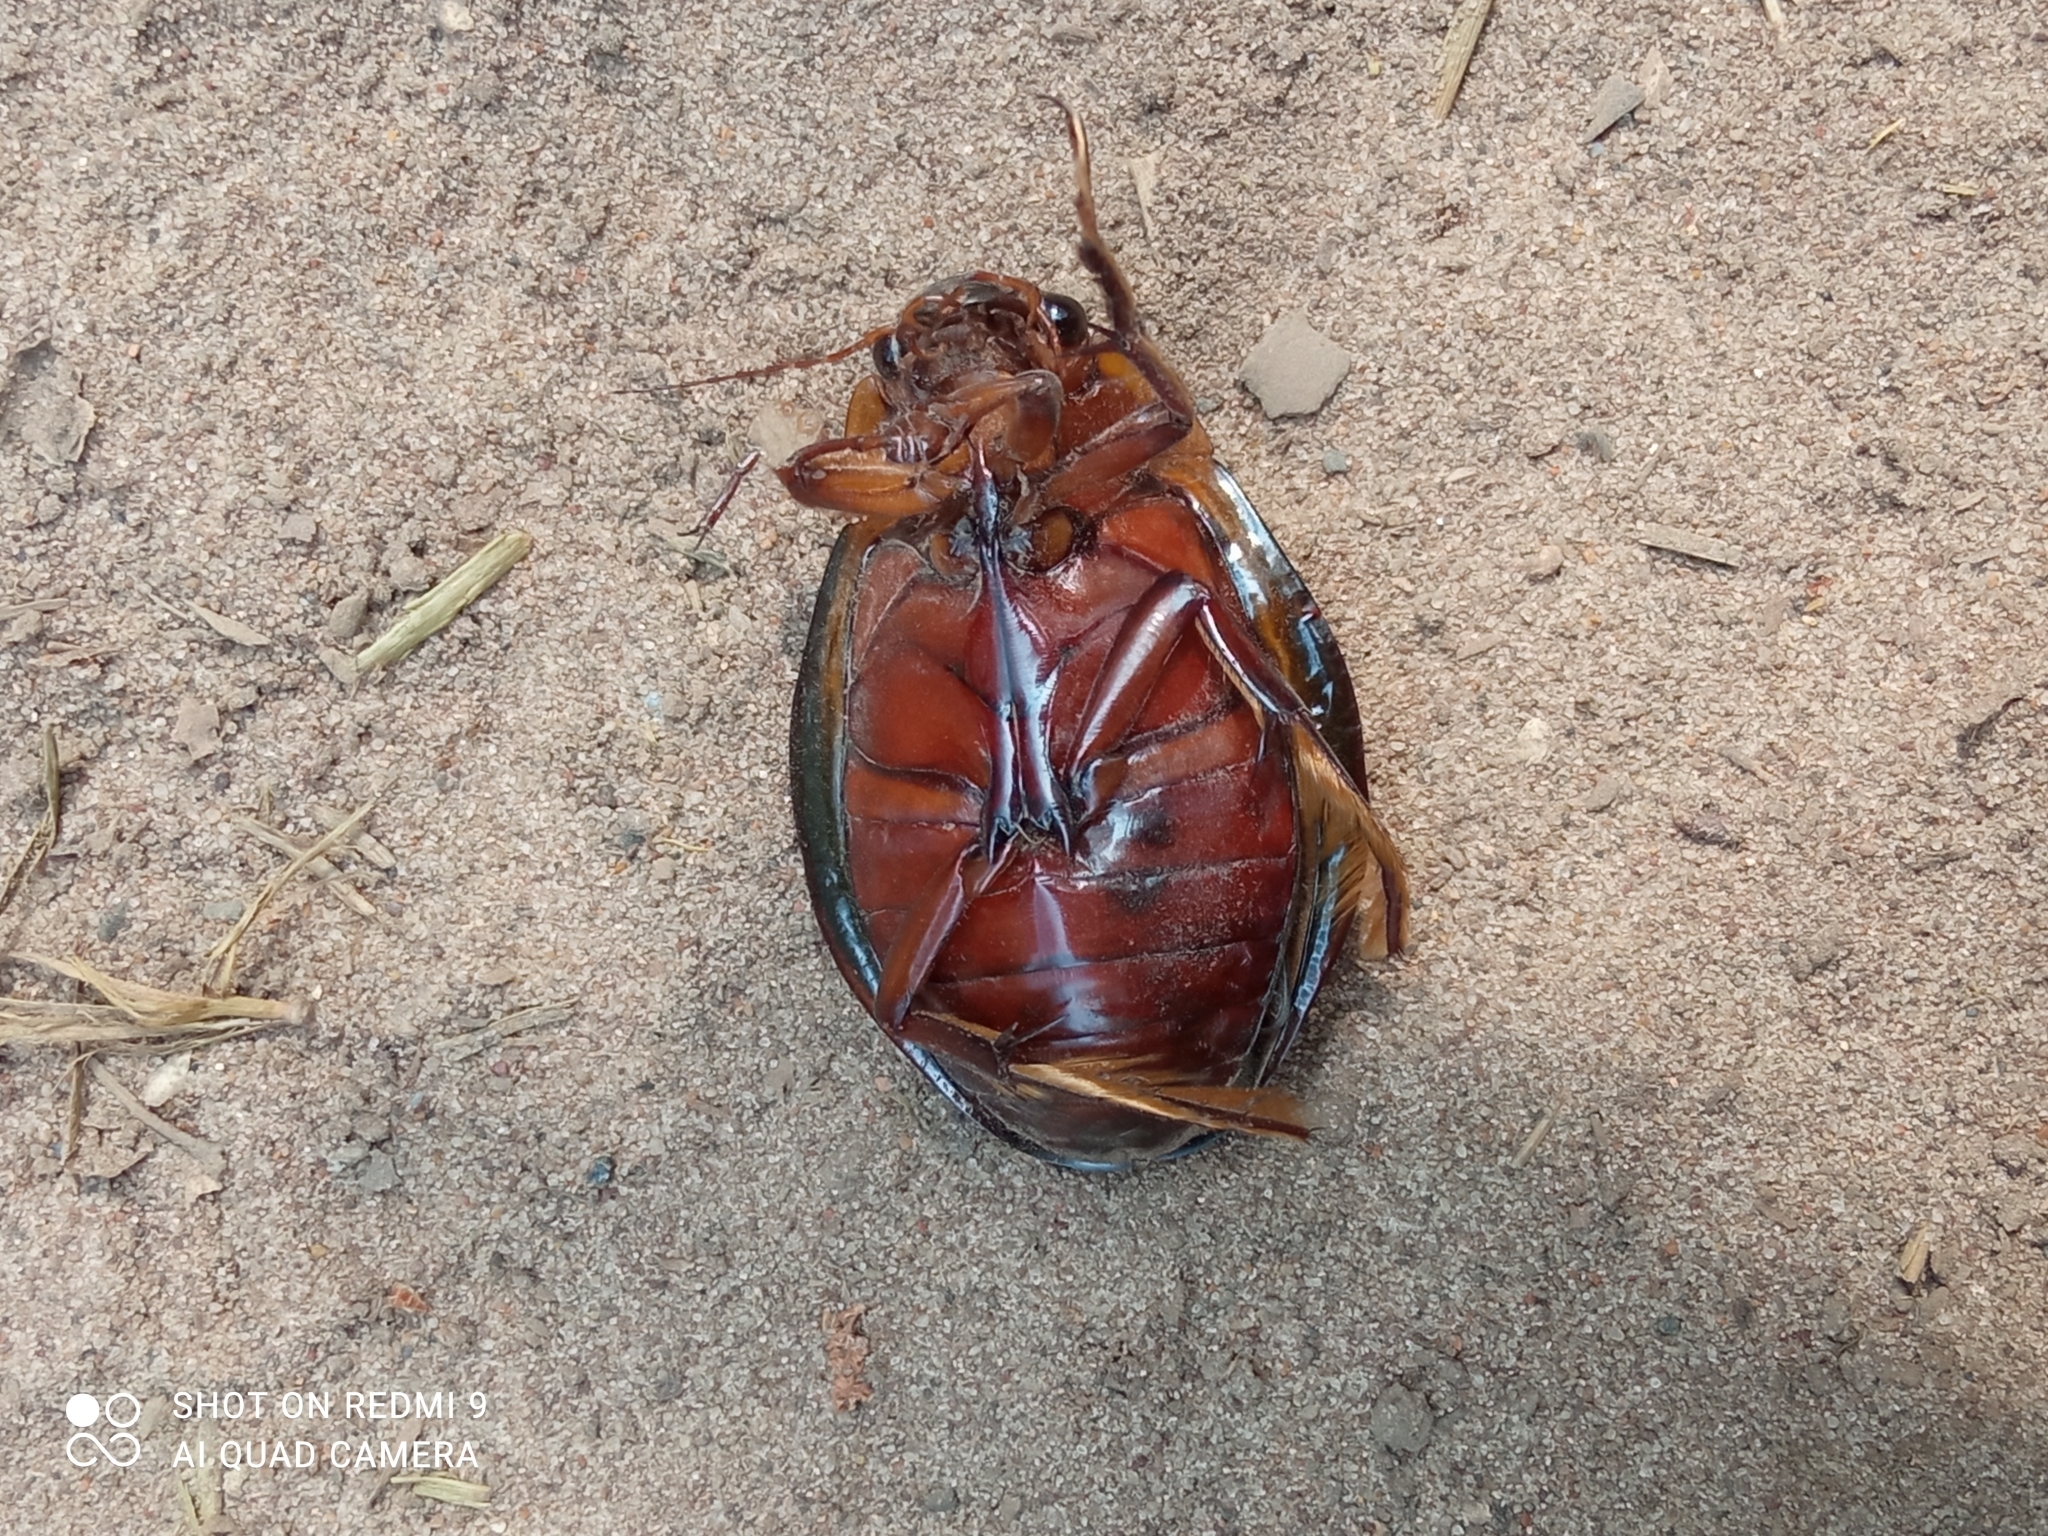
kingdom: Animalia
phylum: Arthropoda
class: Insecta
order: Coleoptera
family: Dytiscidae
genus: Dytiscus
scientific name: Dytiscus latissimus
